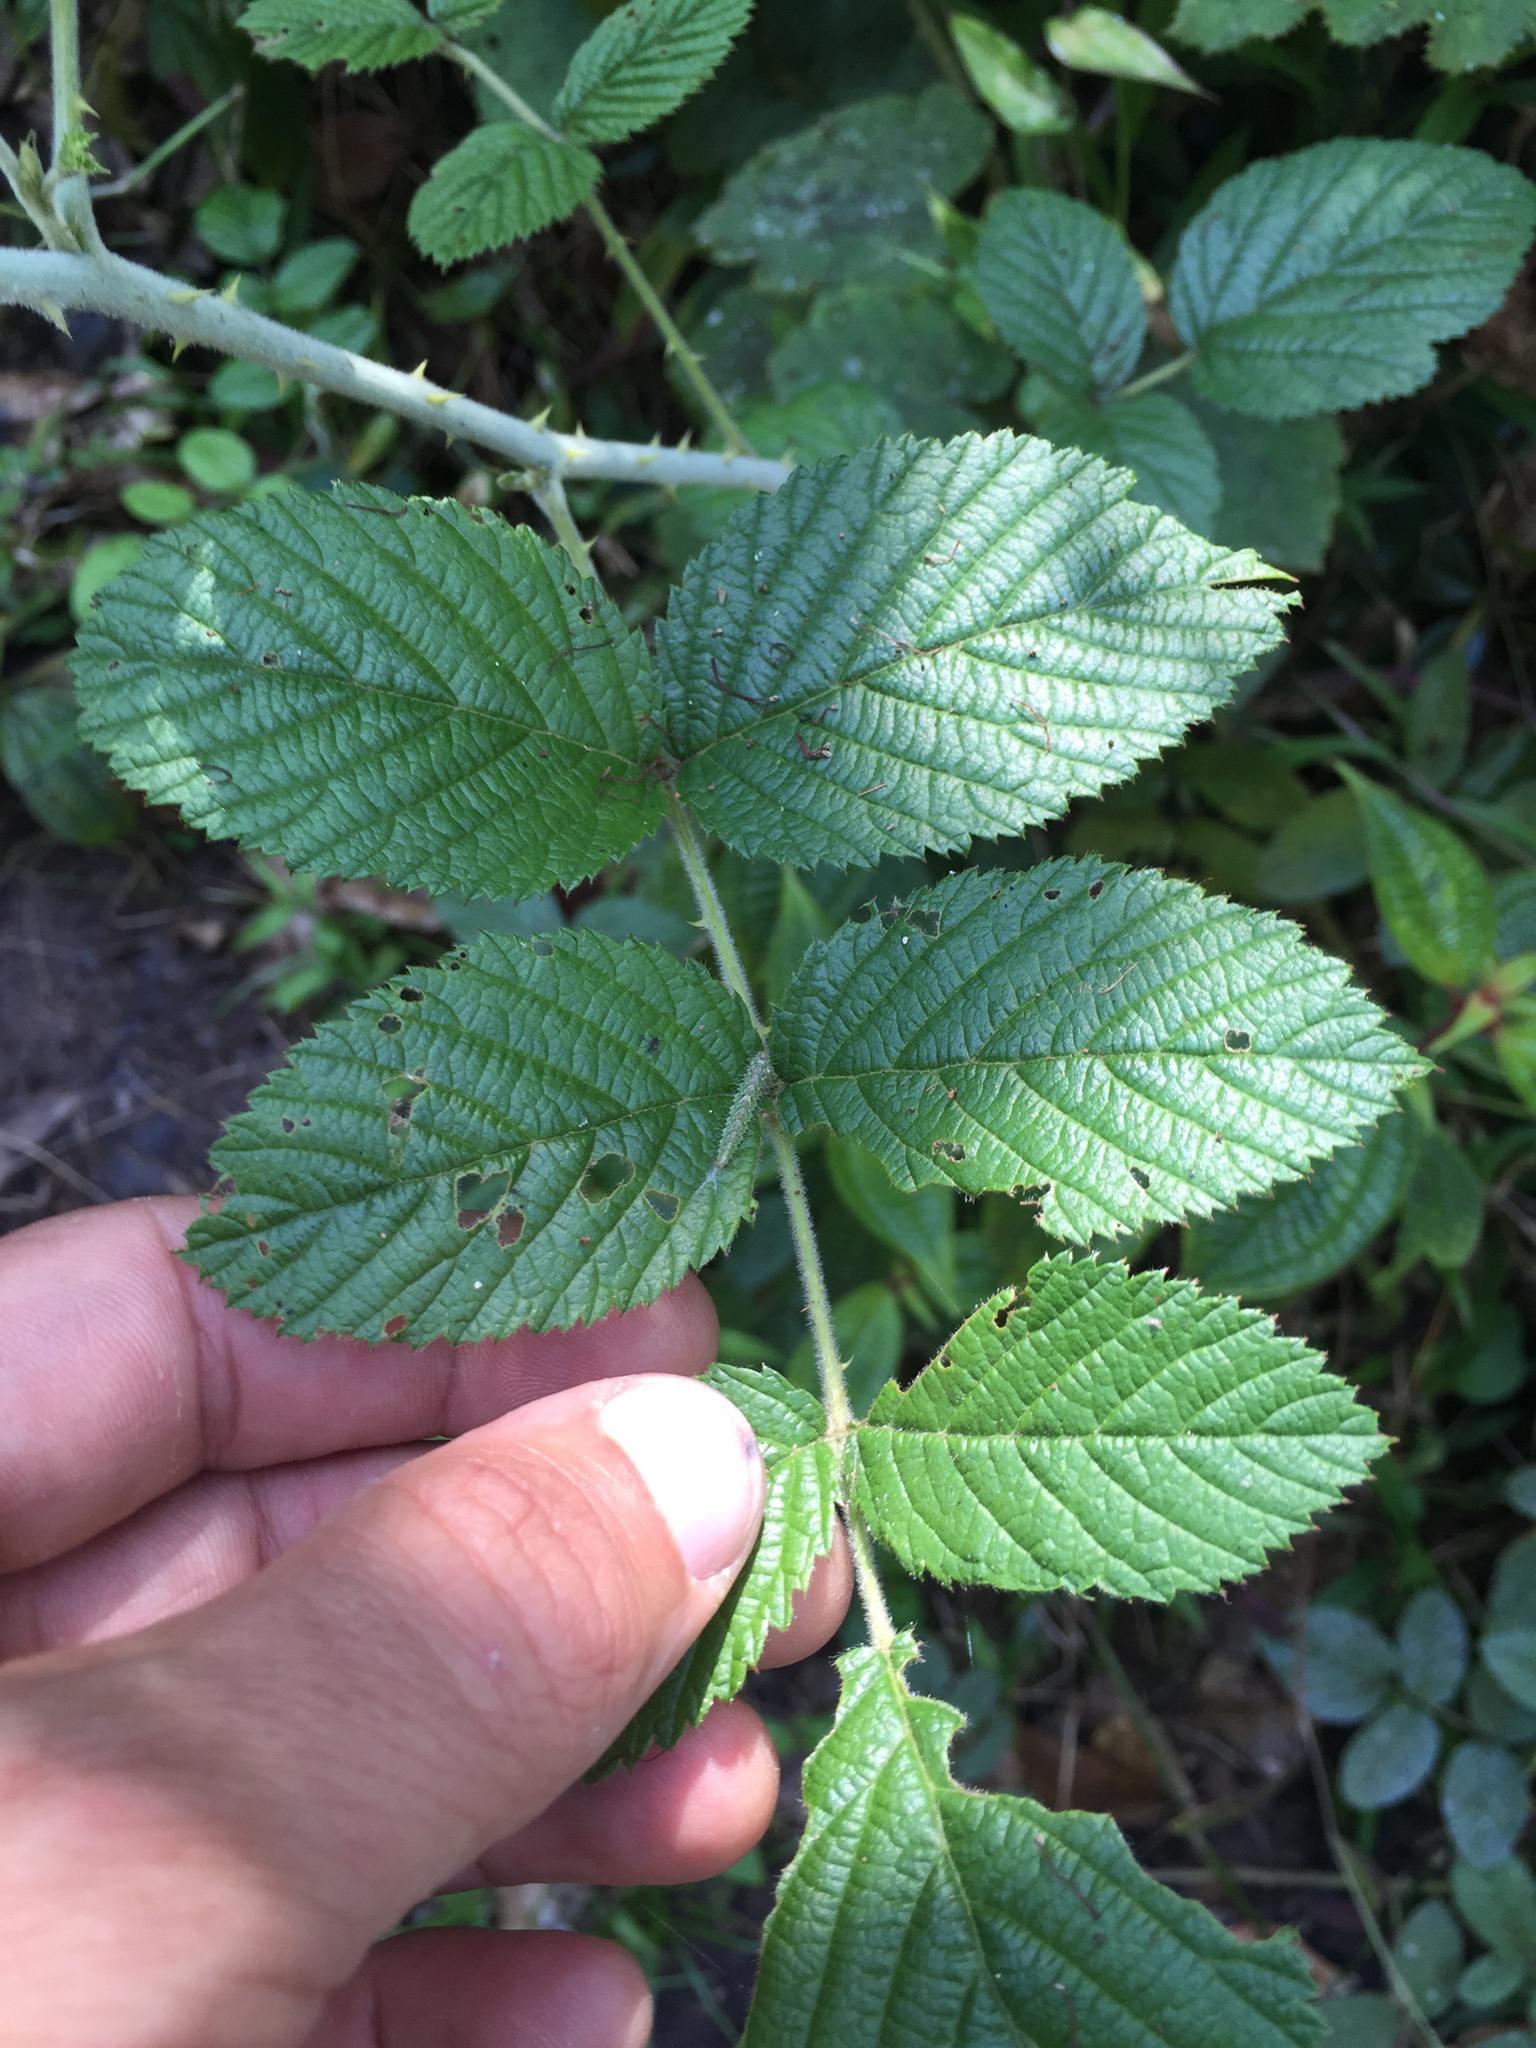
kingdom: Plantae
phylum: Tracheophyta
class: Magnoliopsida
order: Rosales
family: Rosaceae
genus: Rubus
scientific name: Rubus apetalus
